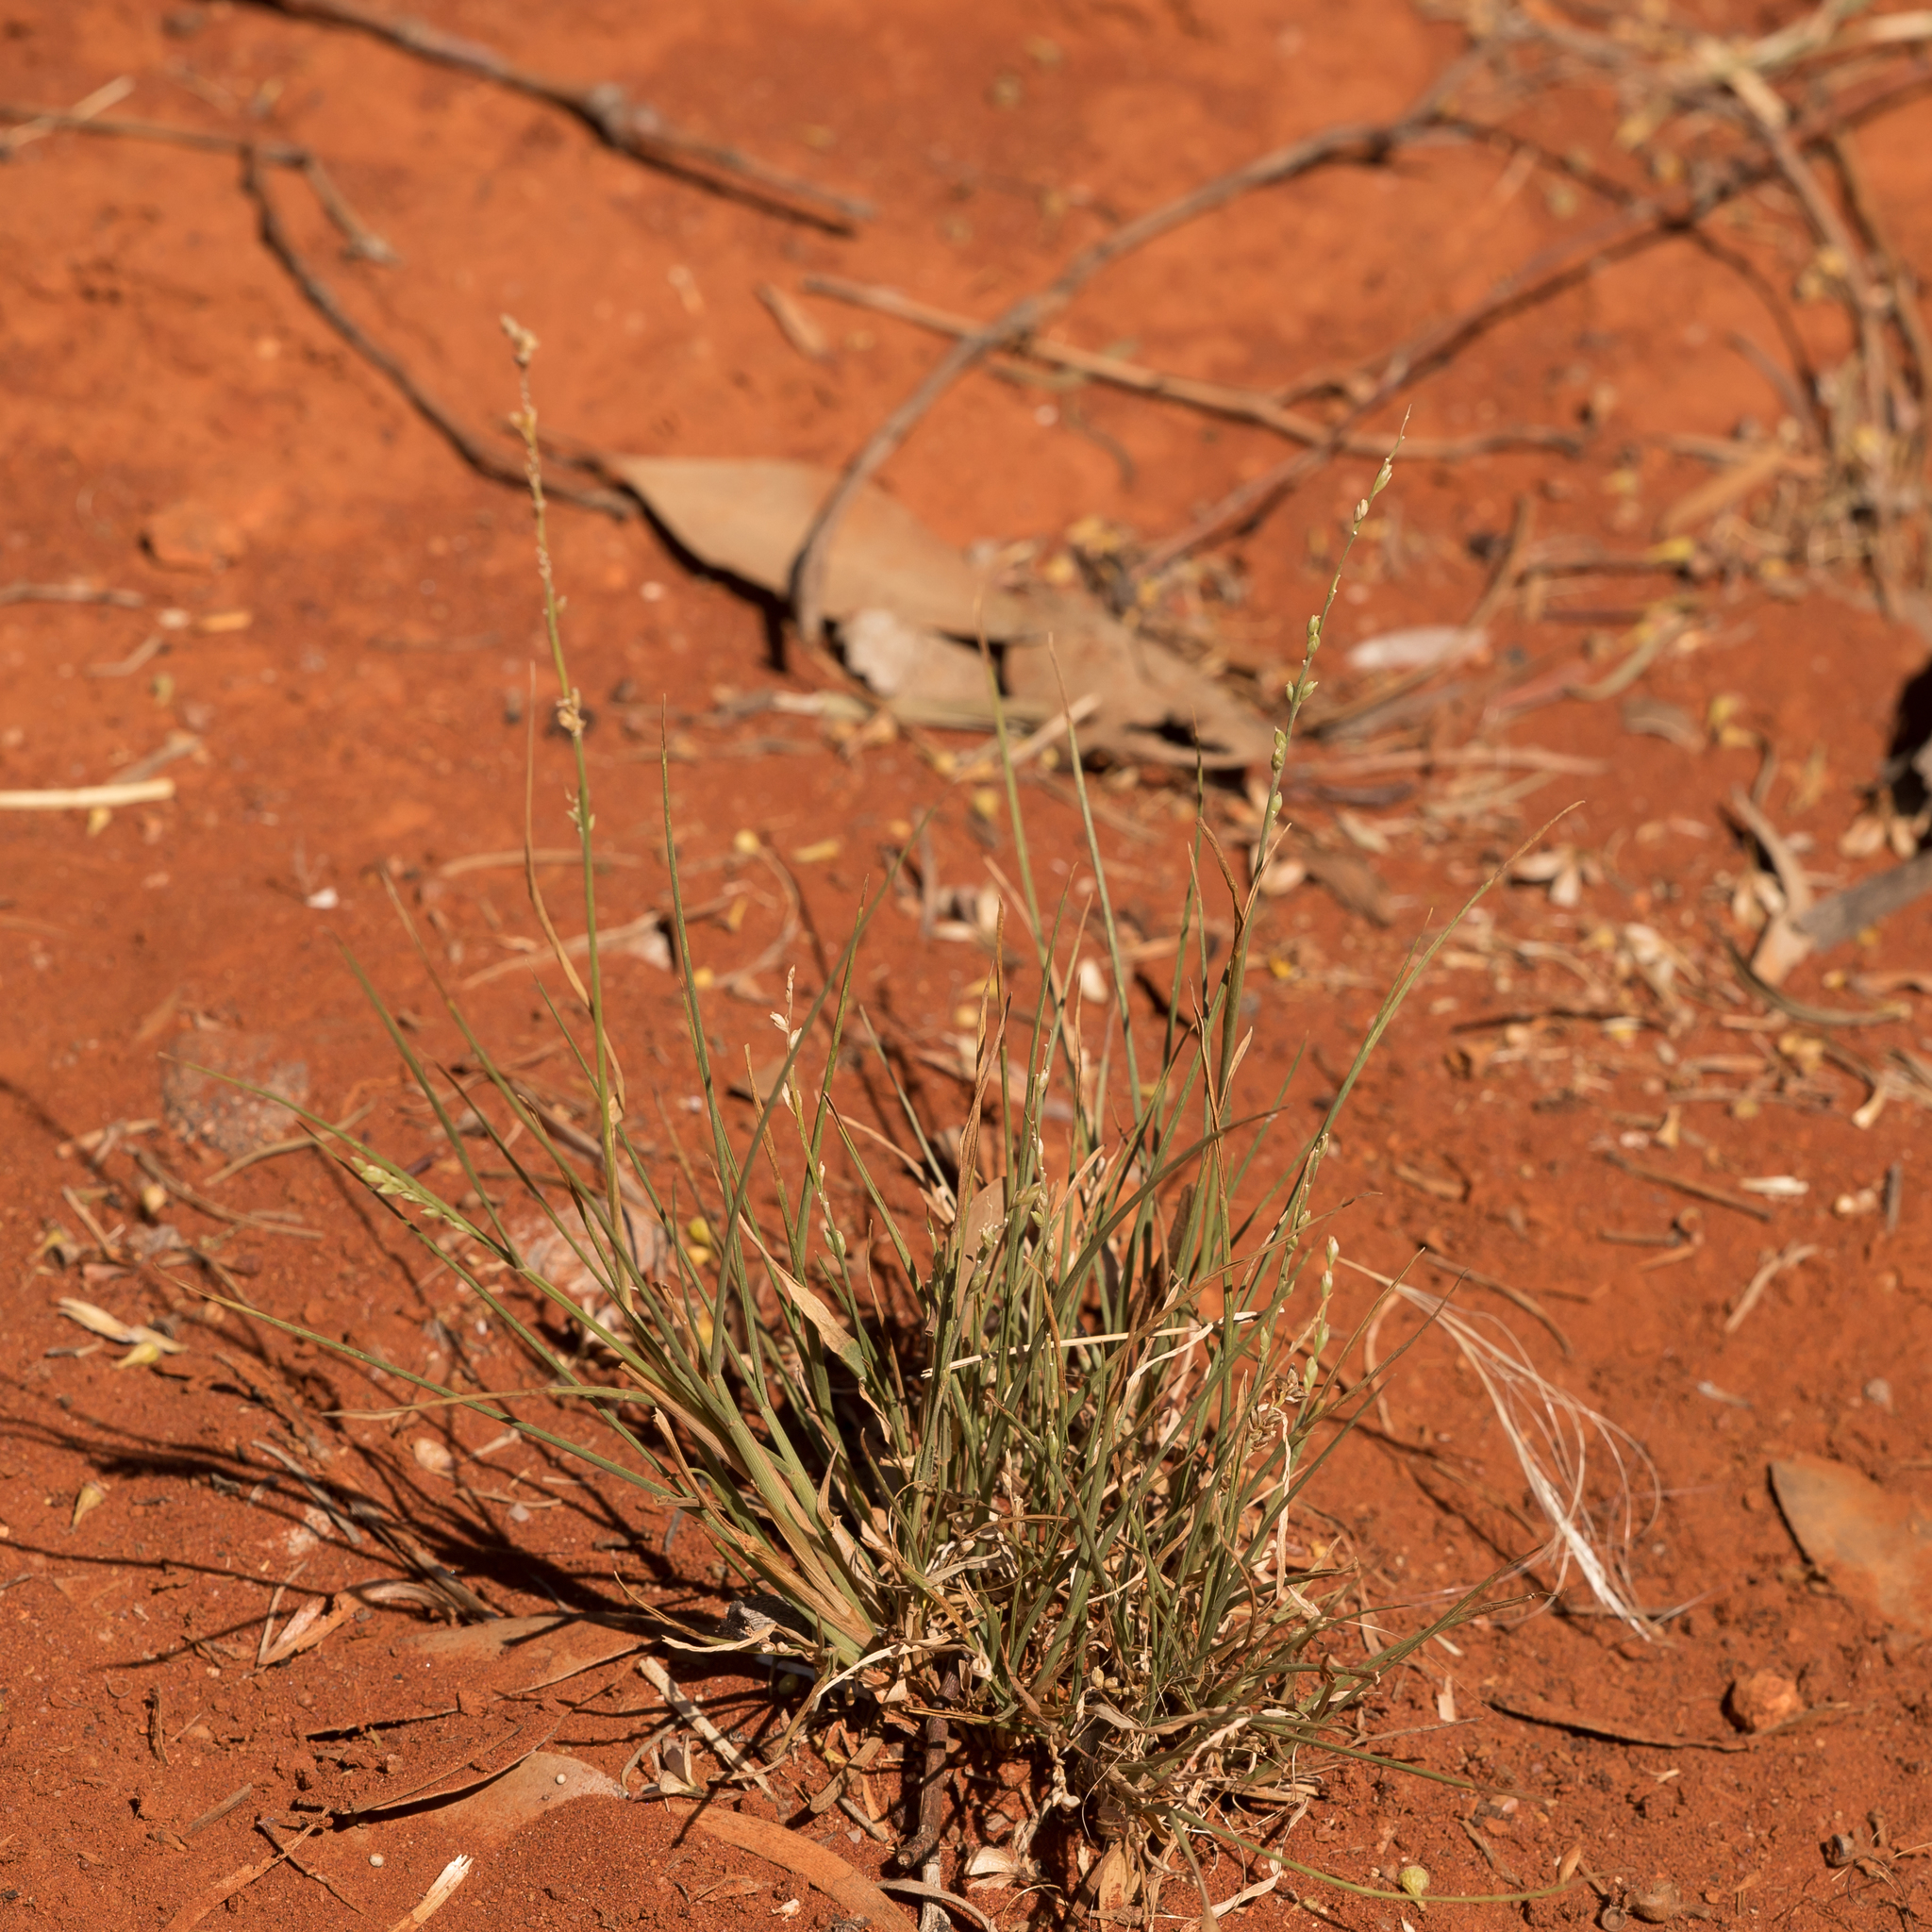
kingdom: Plantae
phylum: Tracheophyta
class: Liliopsida
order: Poales
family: Poaceae
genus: Setaria
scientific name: Setaria constricta
